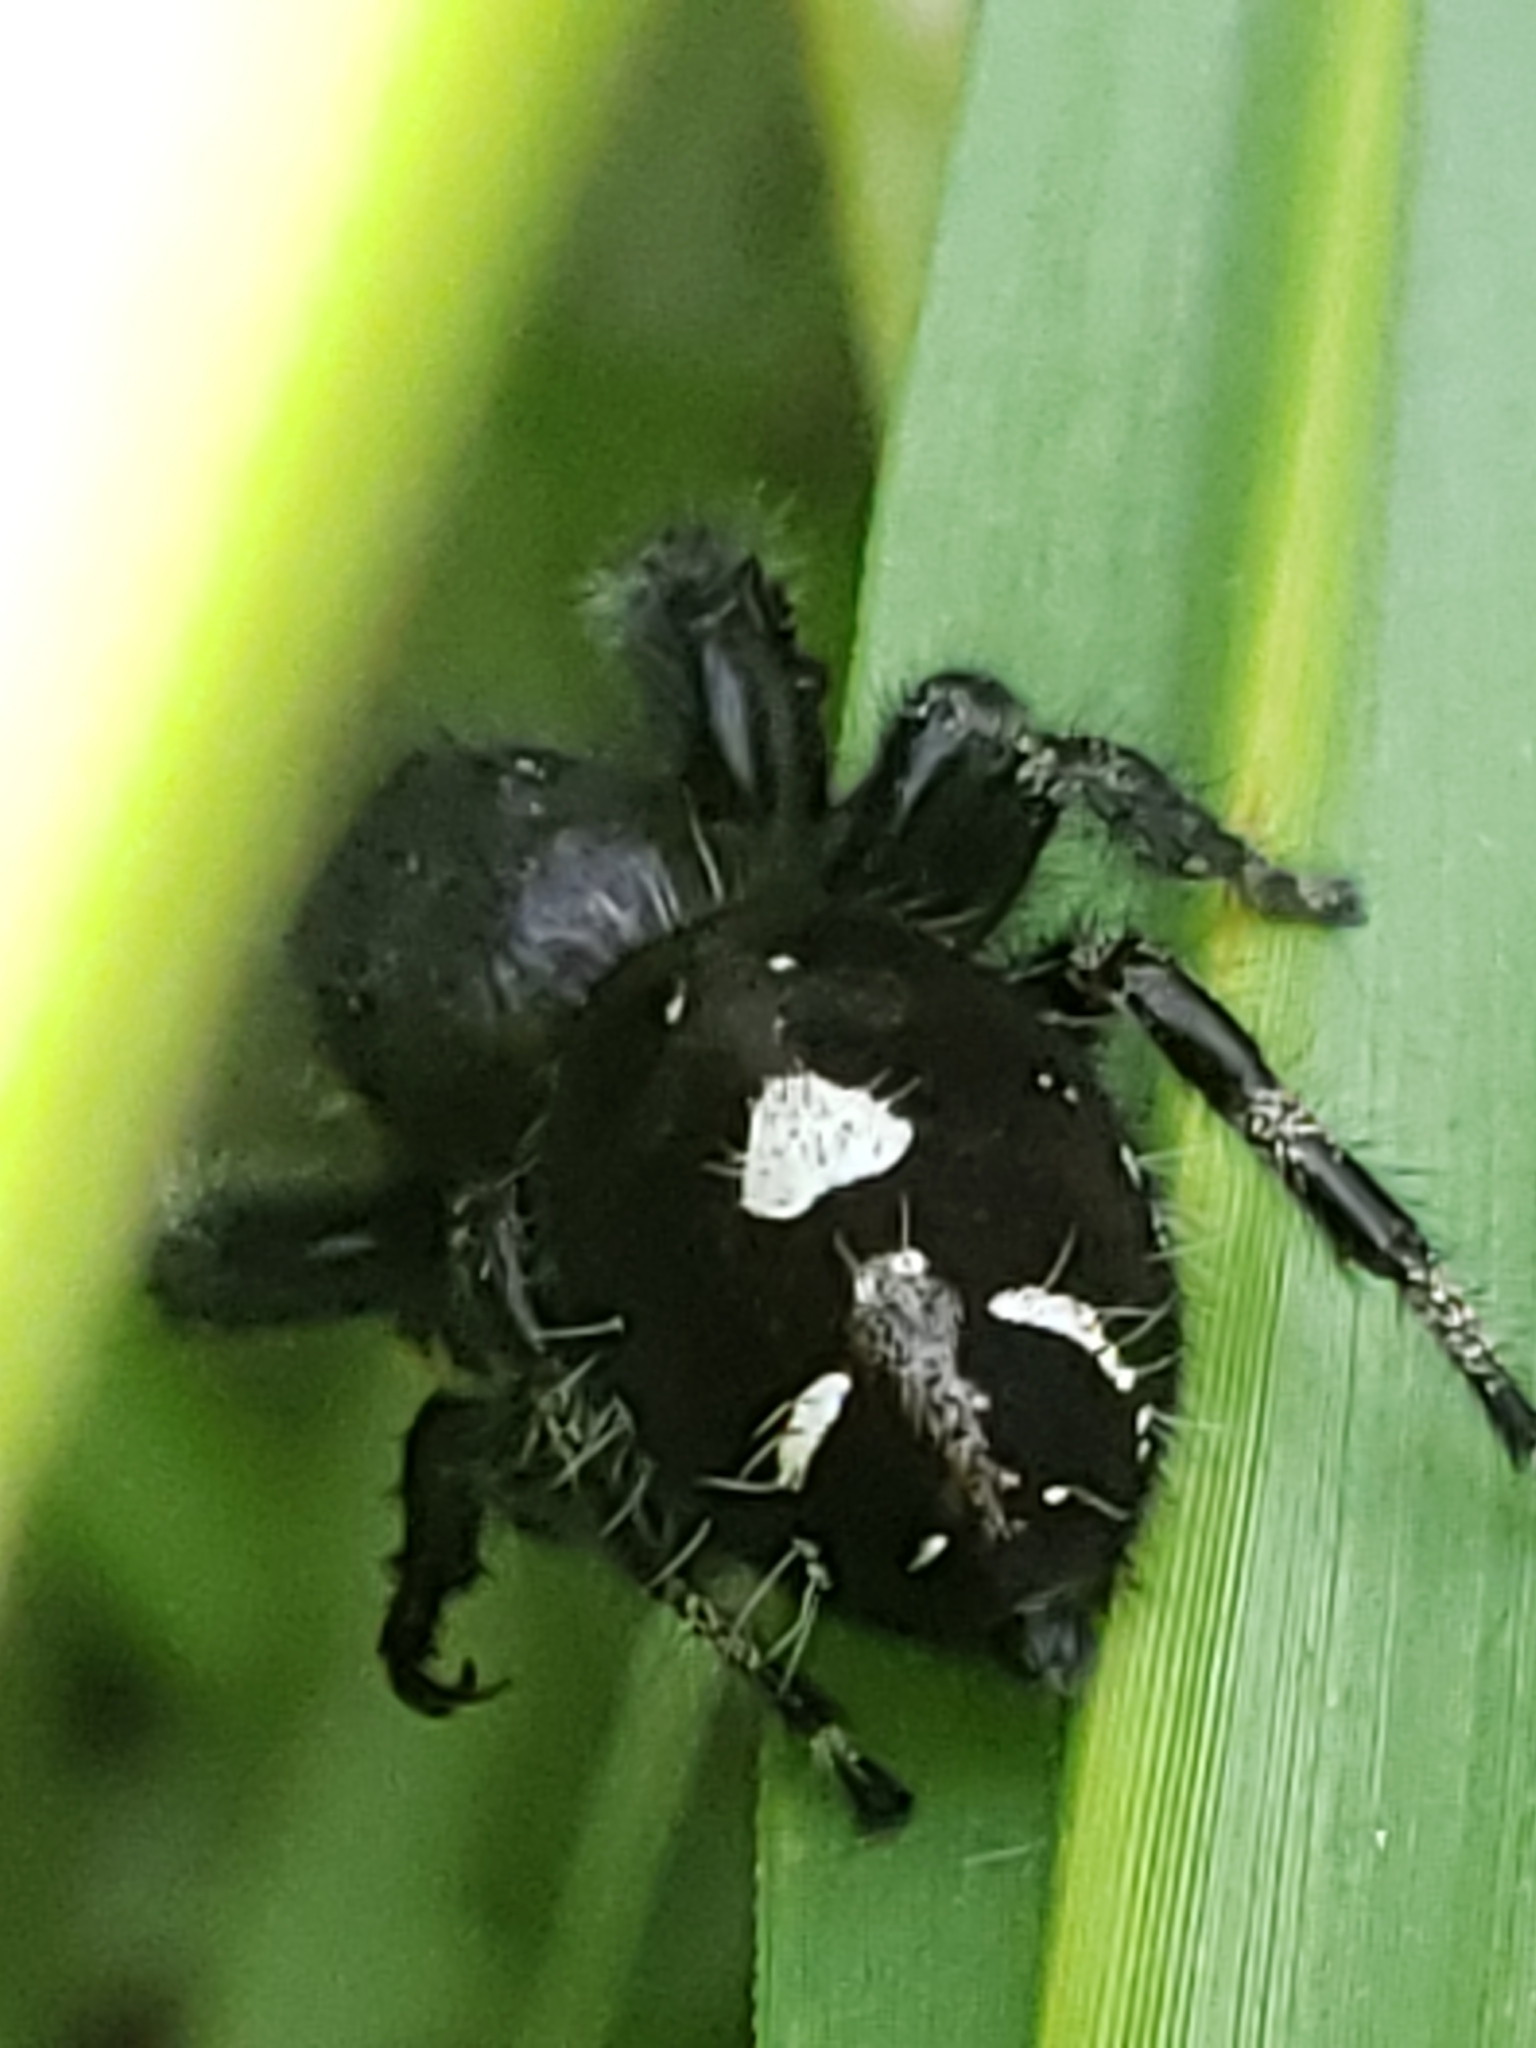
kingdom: Animalia
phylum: Arthropoda
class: Arachnida
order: Araneae
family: Salticidae
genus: Phidippus
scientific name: Phidippus audax
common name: Bold jumper
